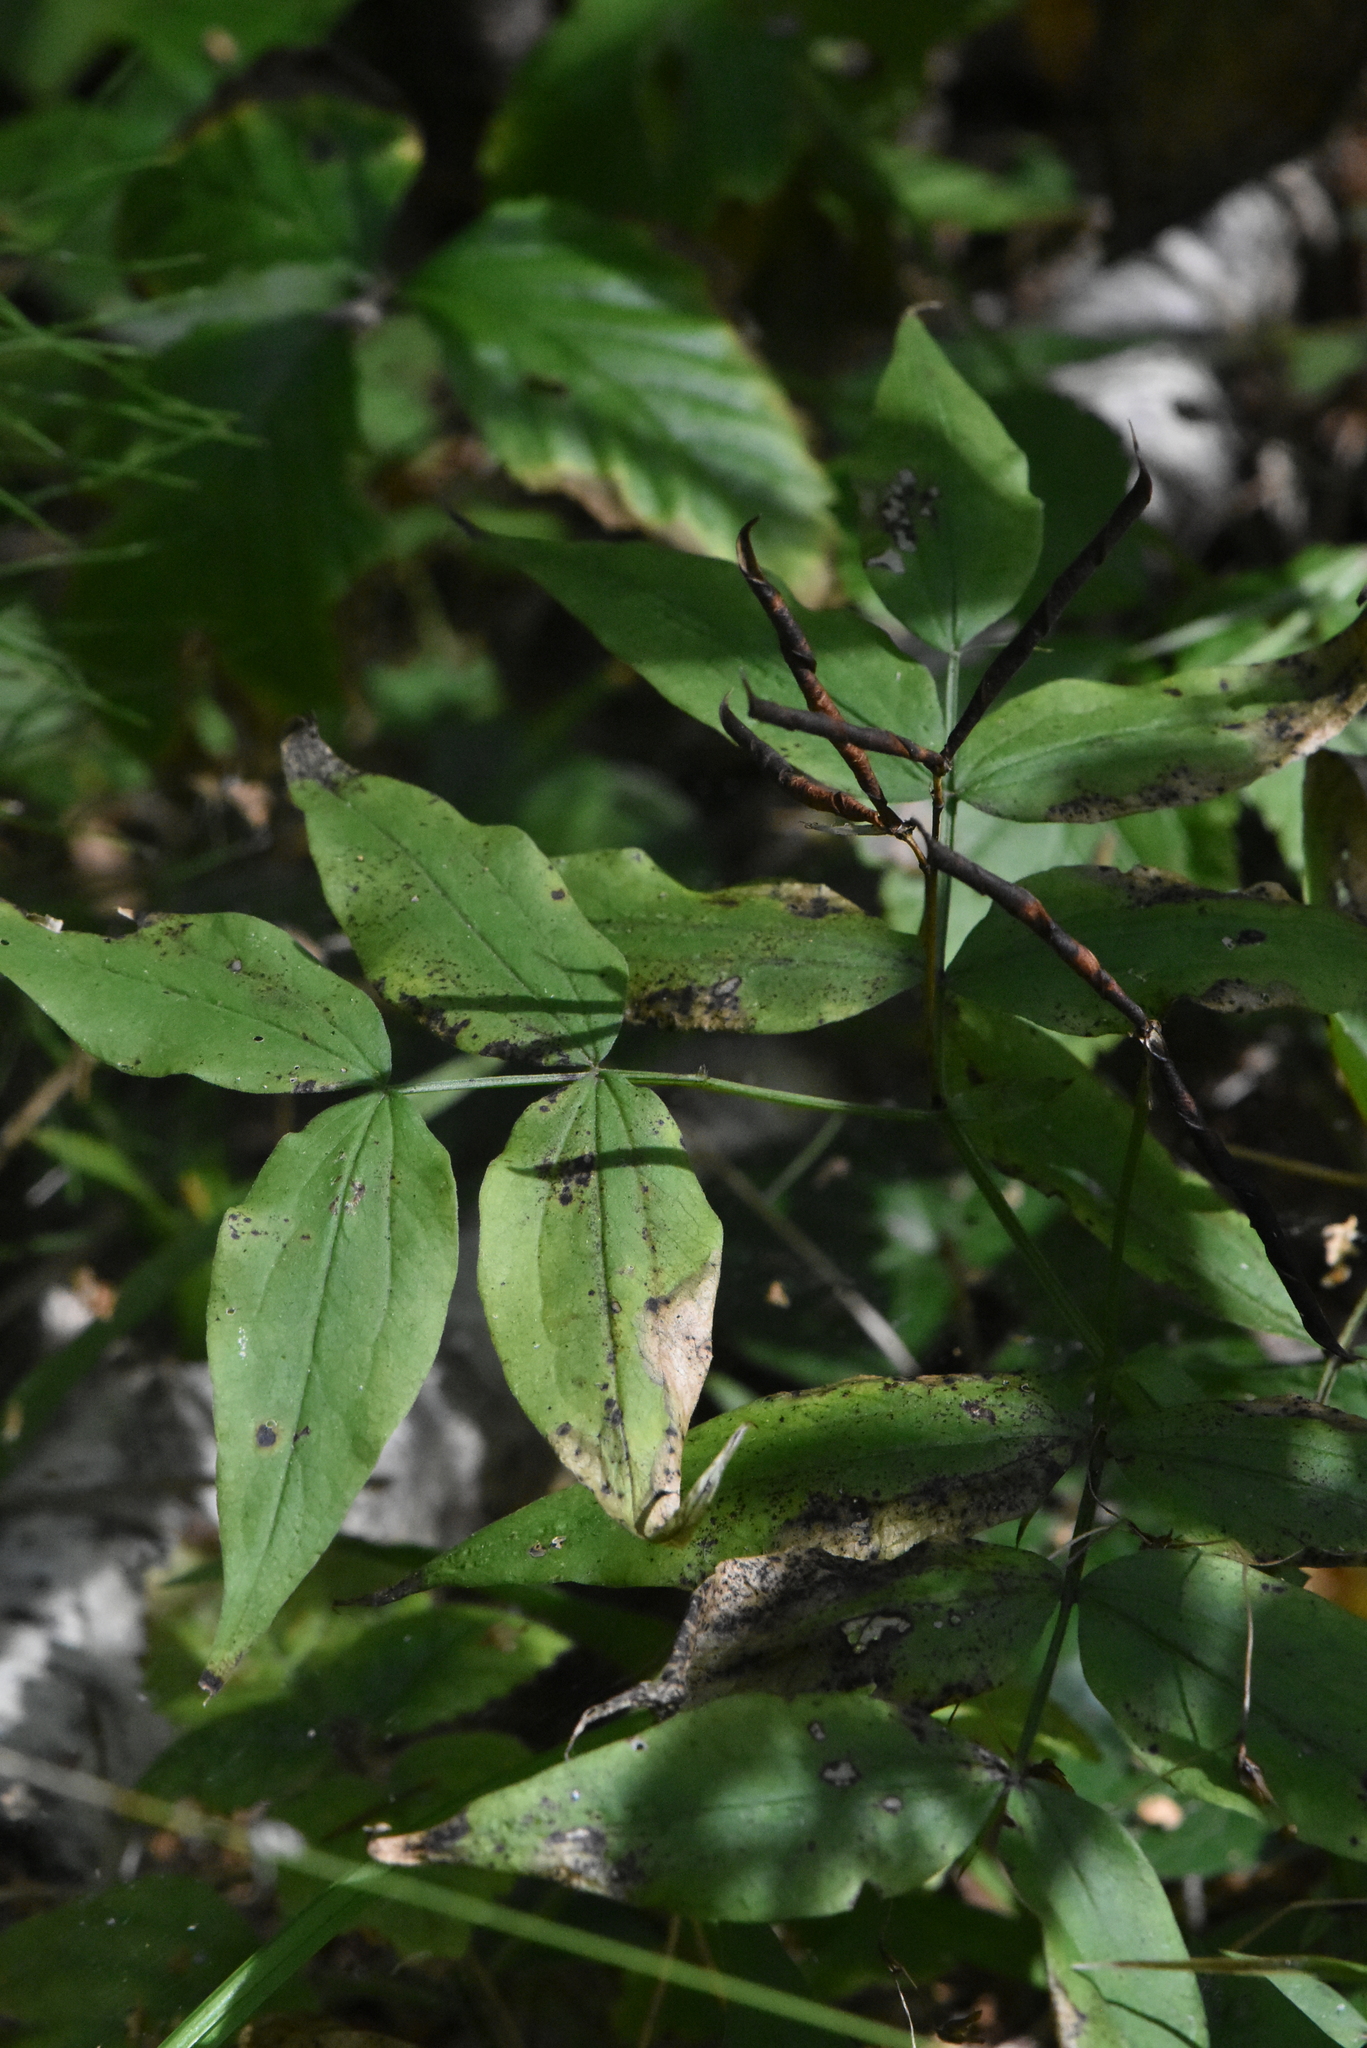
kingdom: Plantae
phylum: Tracheophyta
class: Magnoliopsida
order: Fabales
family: Fabaceae
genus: Lathyrus
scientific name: Lathyrus vernus
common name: Spring pea
